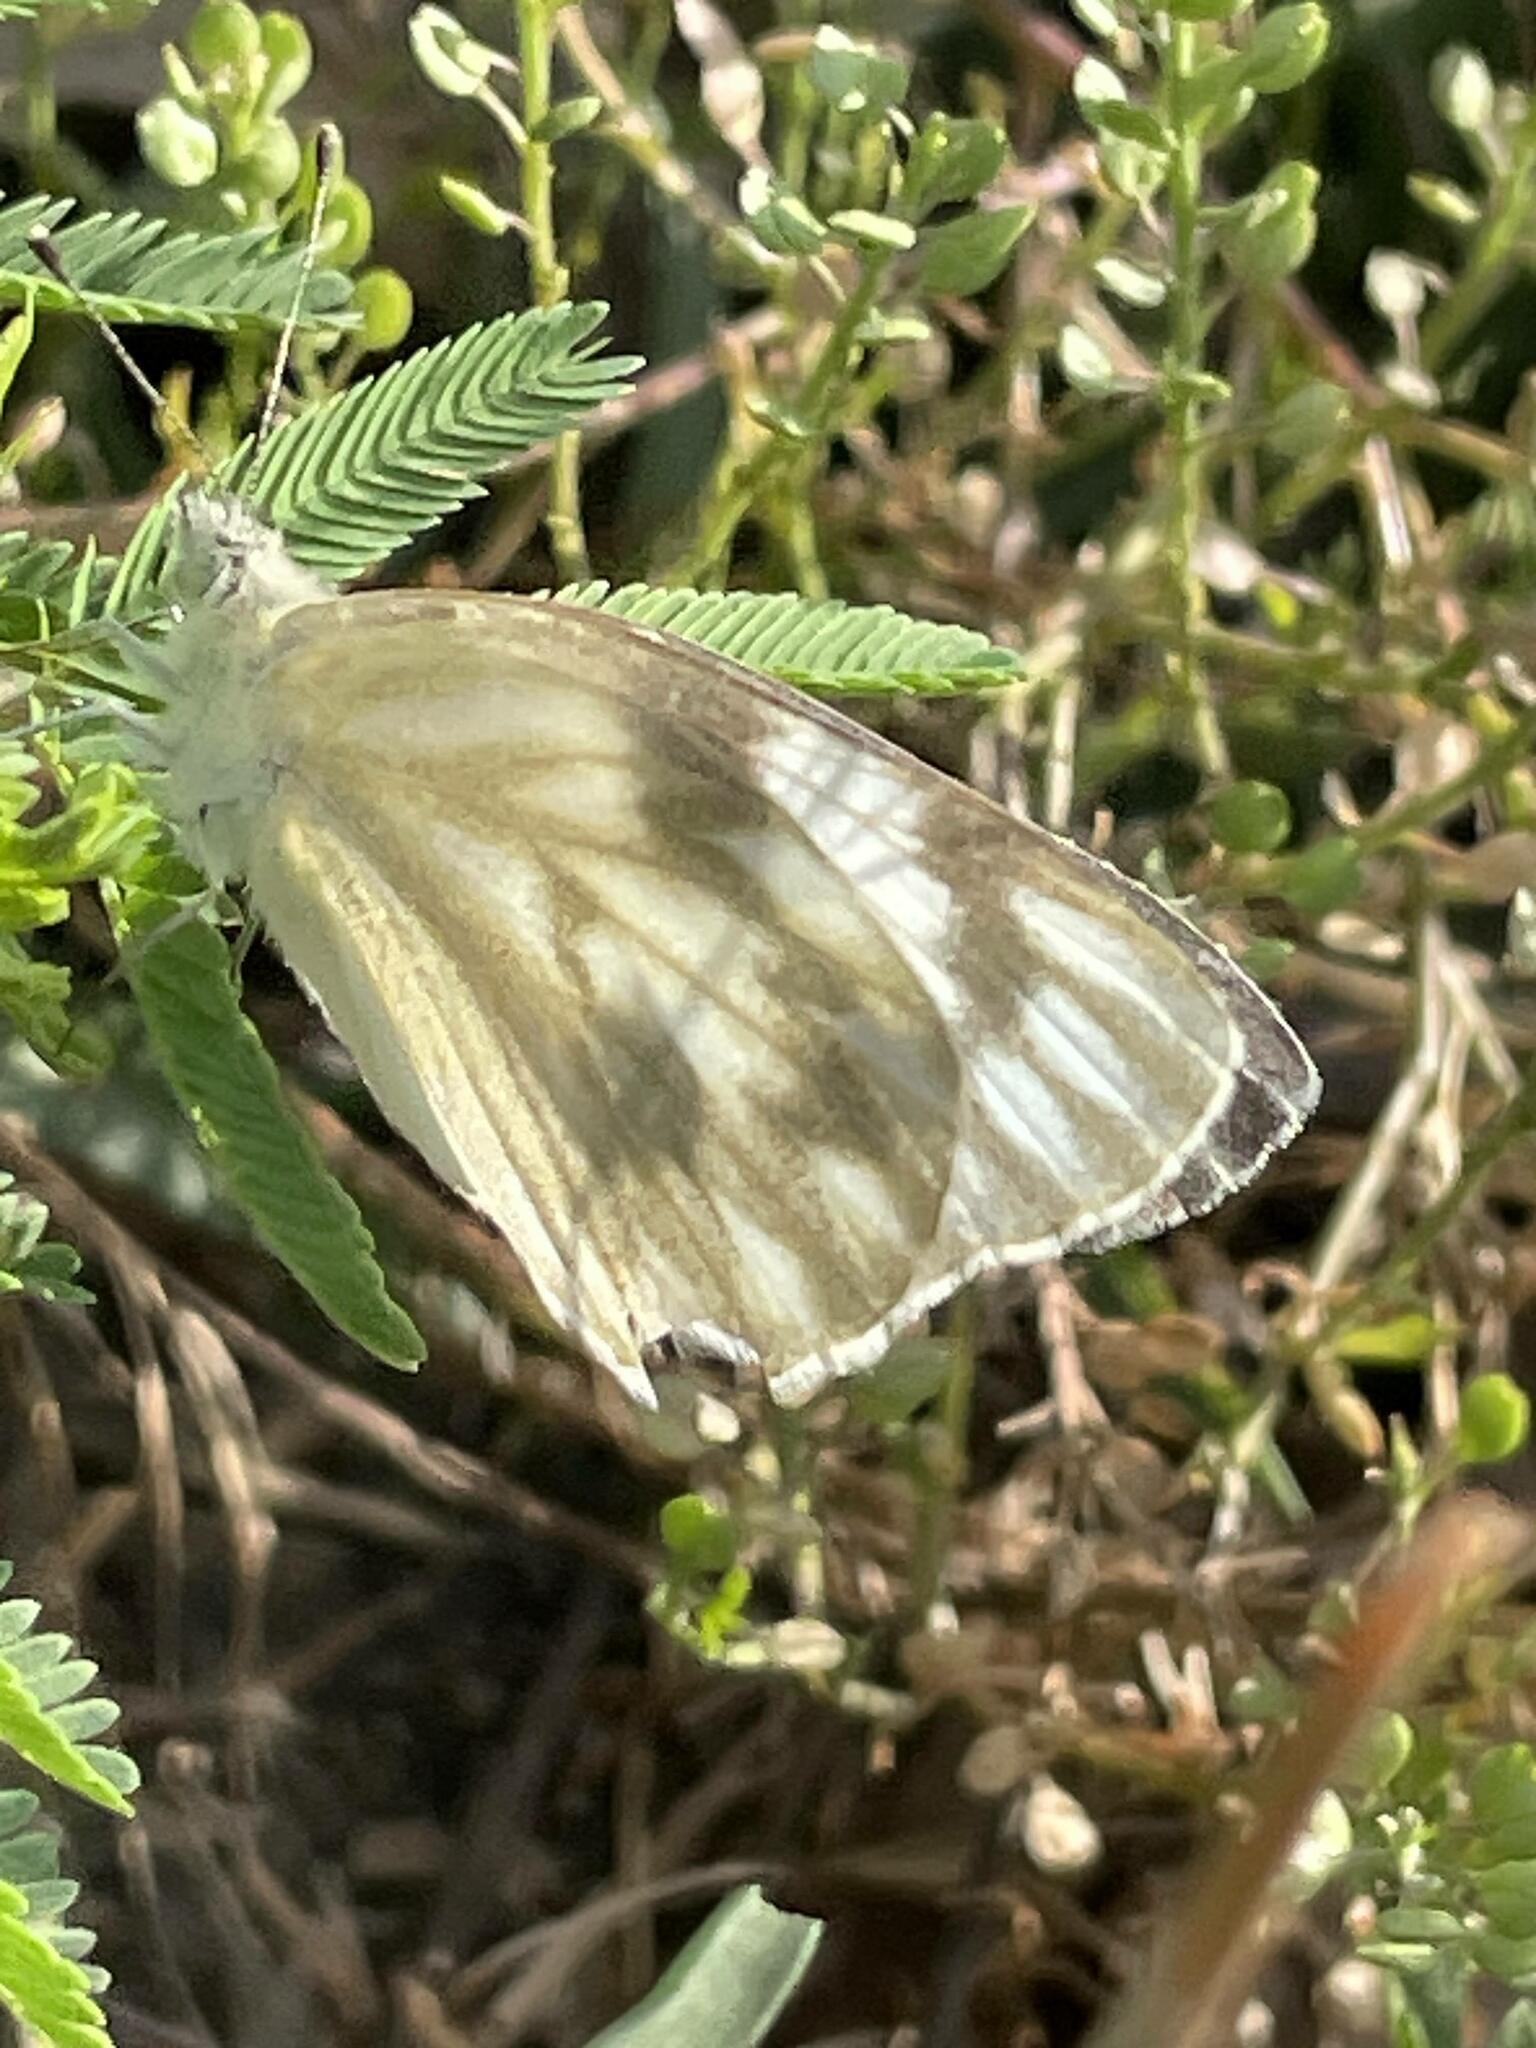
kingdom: Animalia
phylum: Arthropoda
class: Insecta
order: Lepidoptera
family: Pieridae
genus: Pontia
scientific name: Pontia protodice
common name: Checkered white
